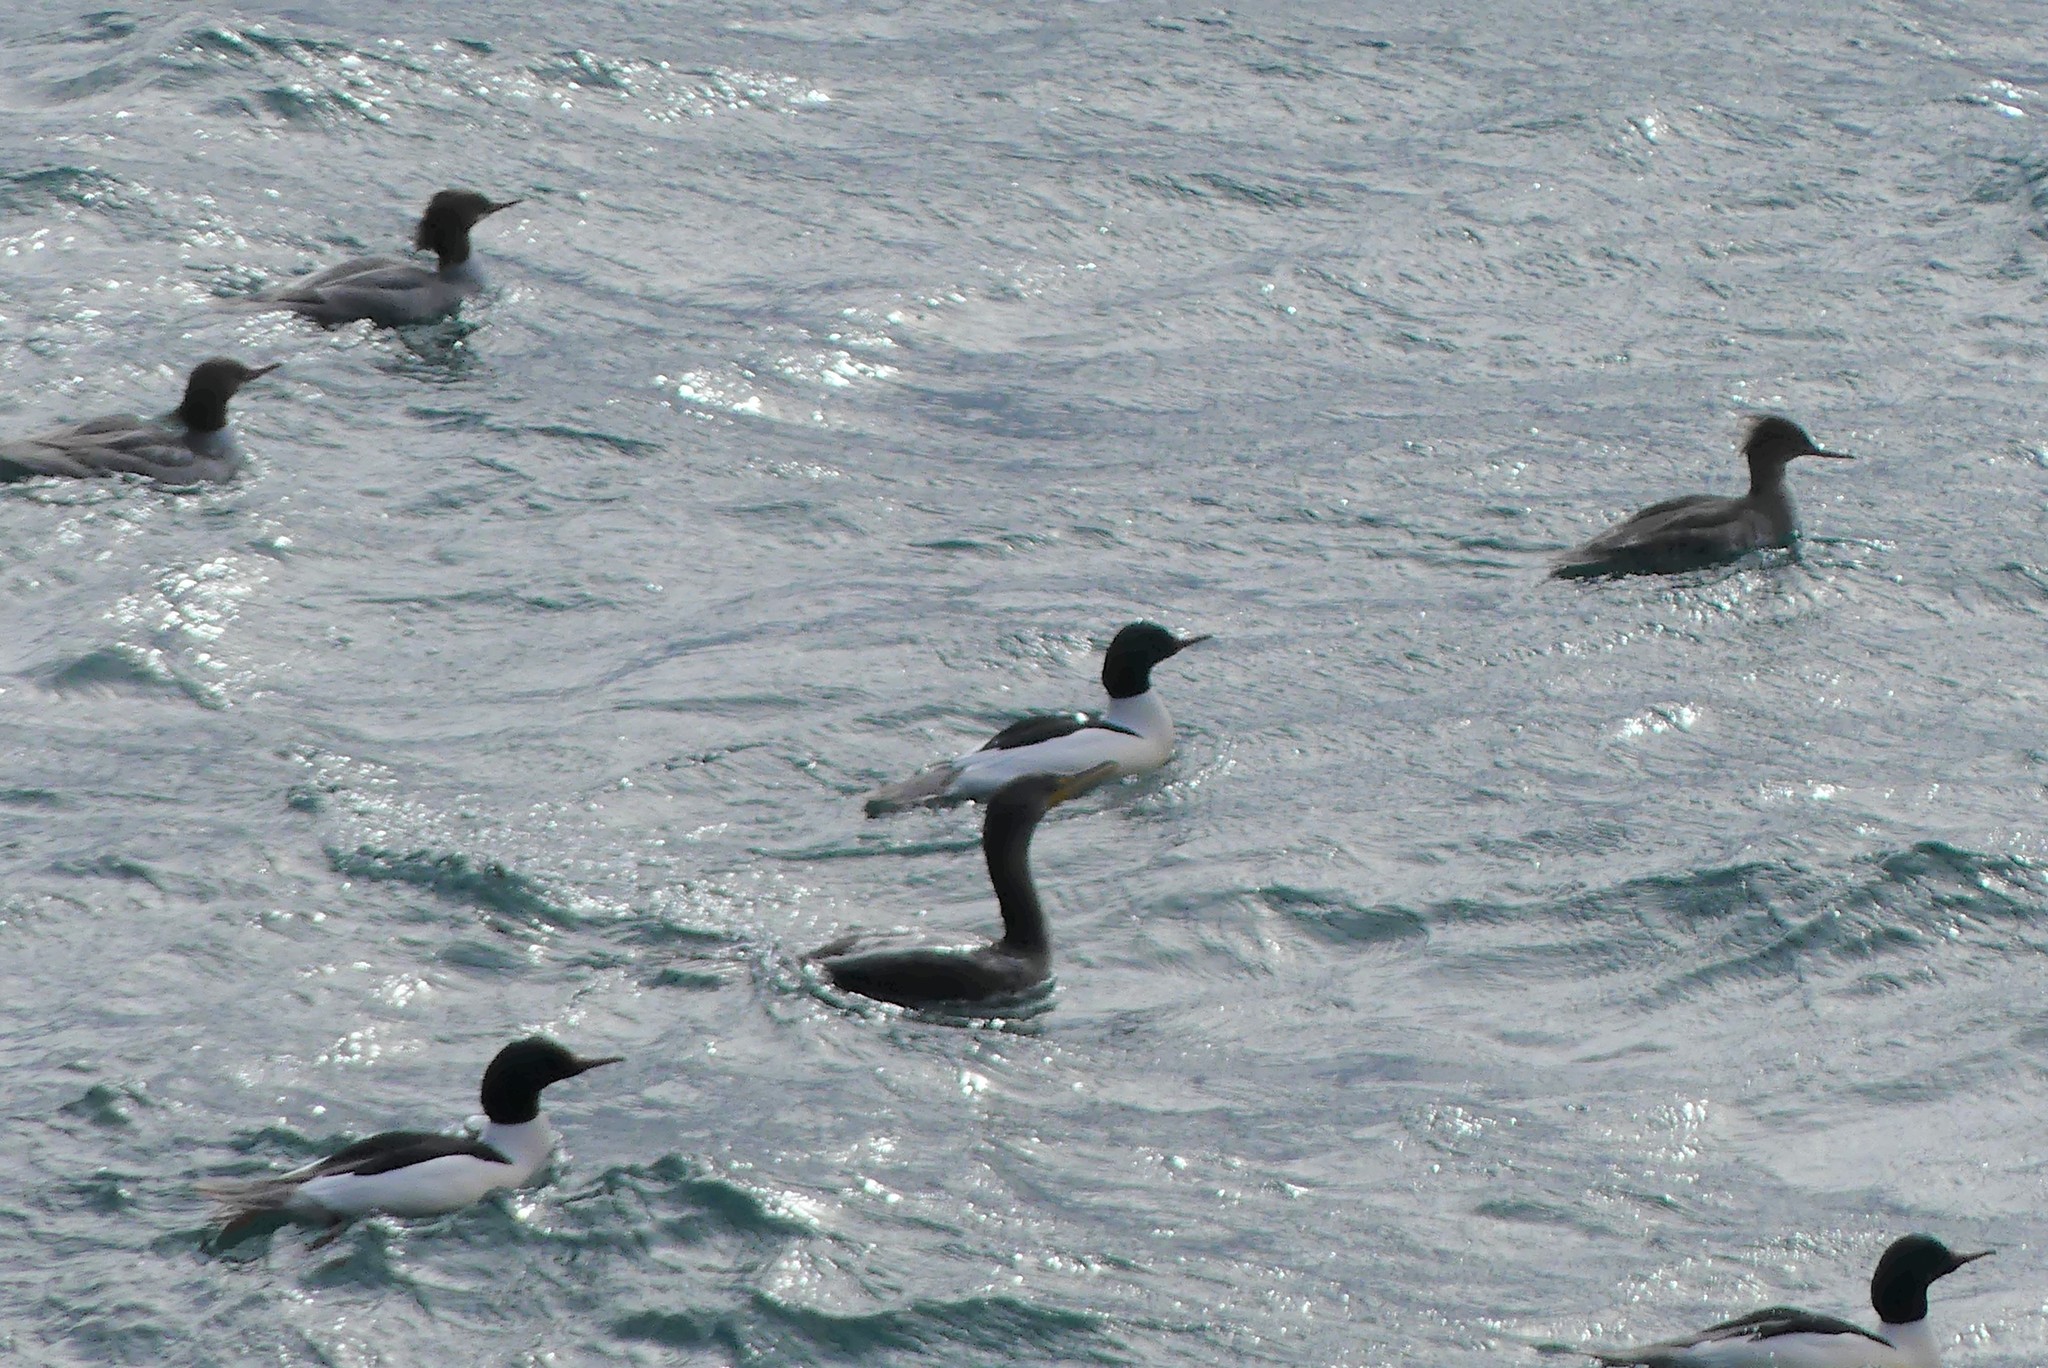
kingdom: Animalia
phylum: Chordata
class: Aves
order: Suliformes
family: Phalacrocoracidae
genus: Phalacrocorax
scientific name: Phalacrocorax auritus
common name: Double-crested cormorant
